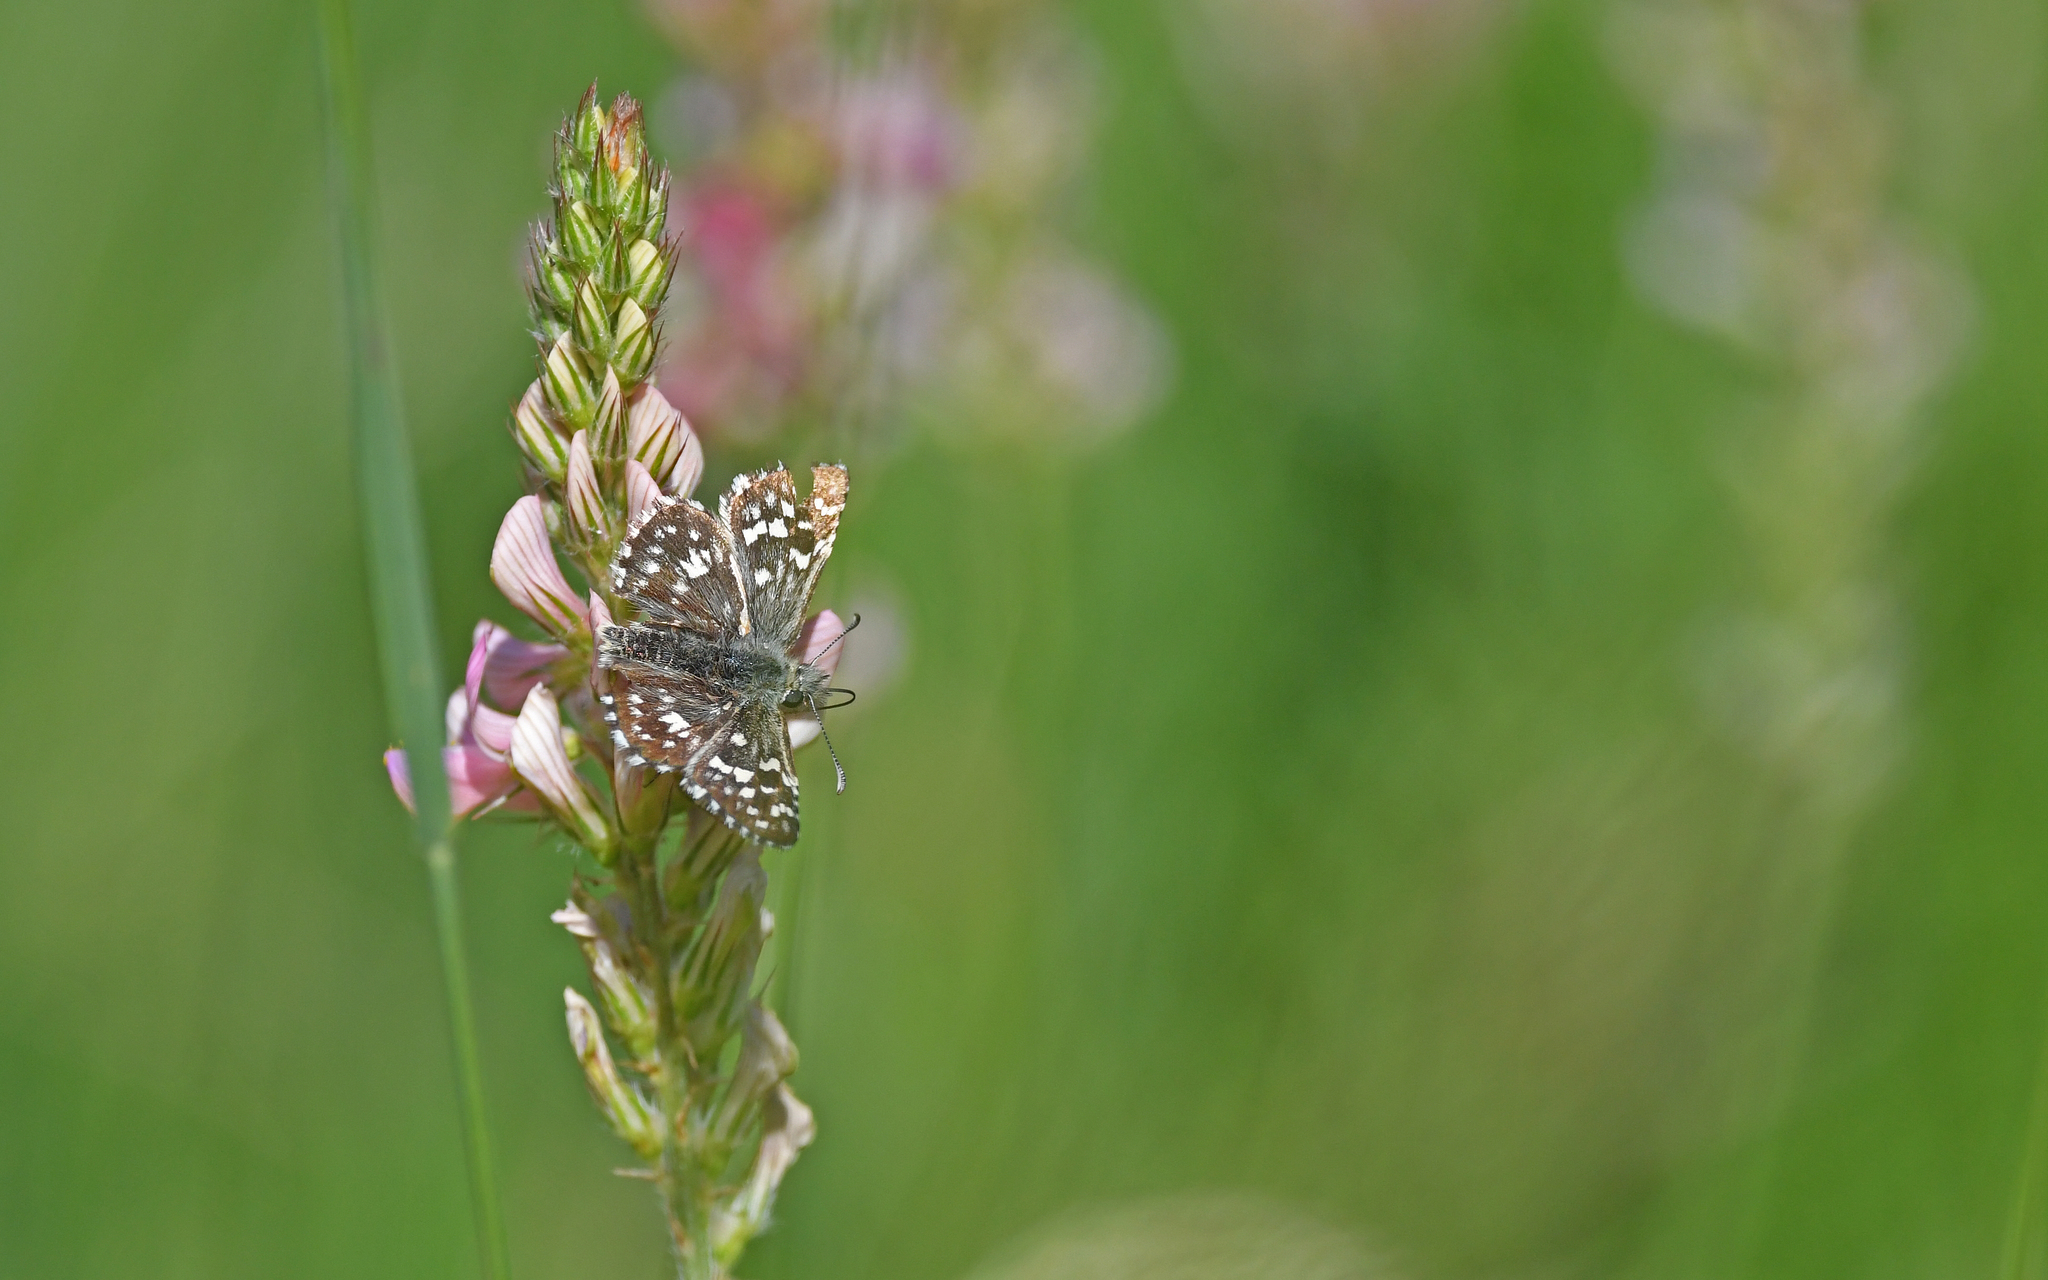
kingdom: Animalia
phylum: Arthropoda
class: Insecta
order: Lepidoptera
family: Hesperiidae
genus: Pyrgus
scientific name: Pyrgus malvae
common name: Grizzled skipper
